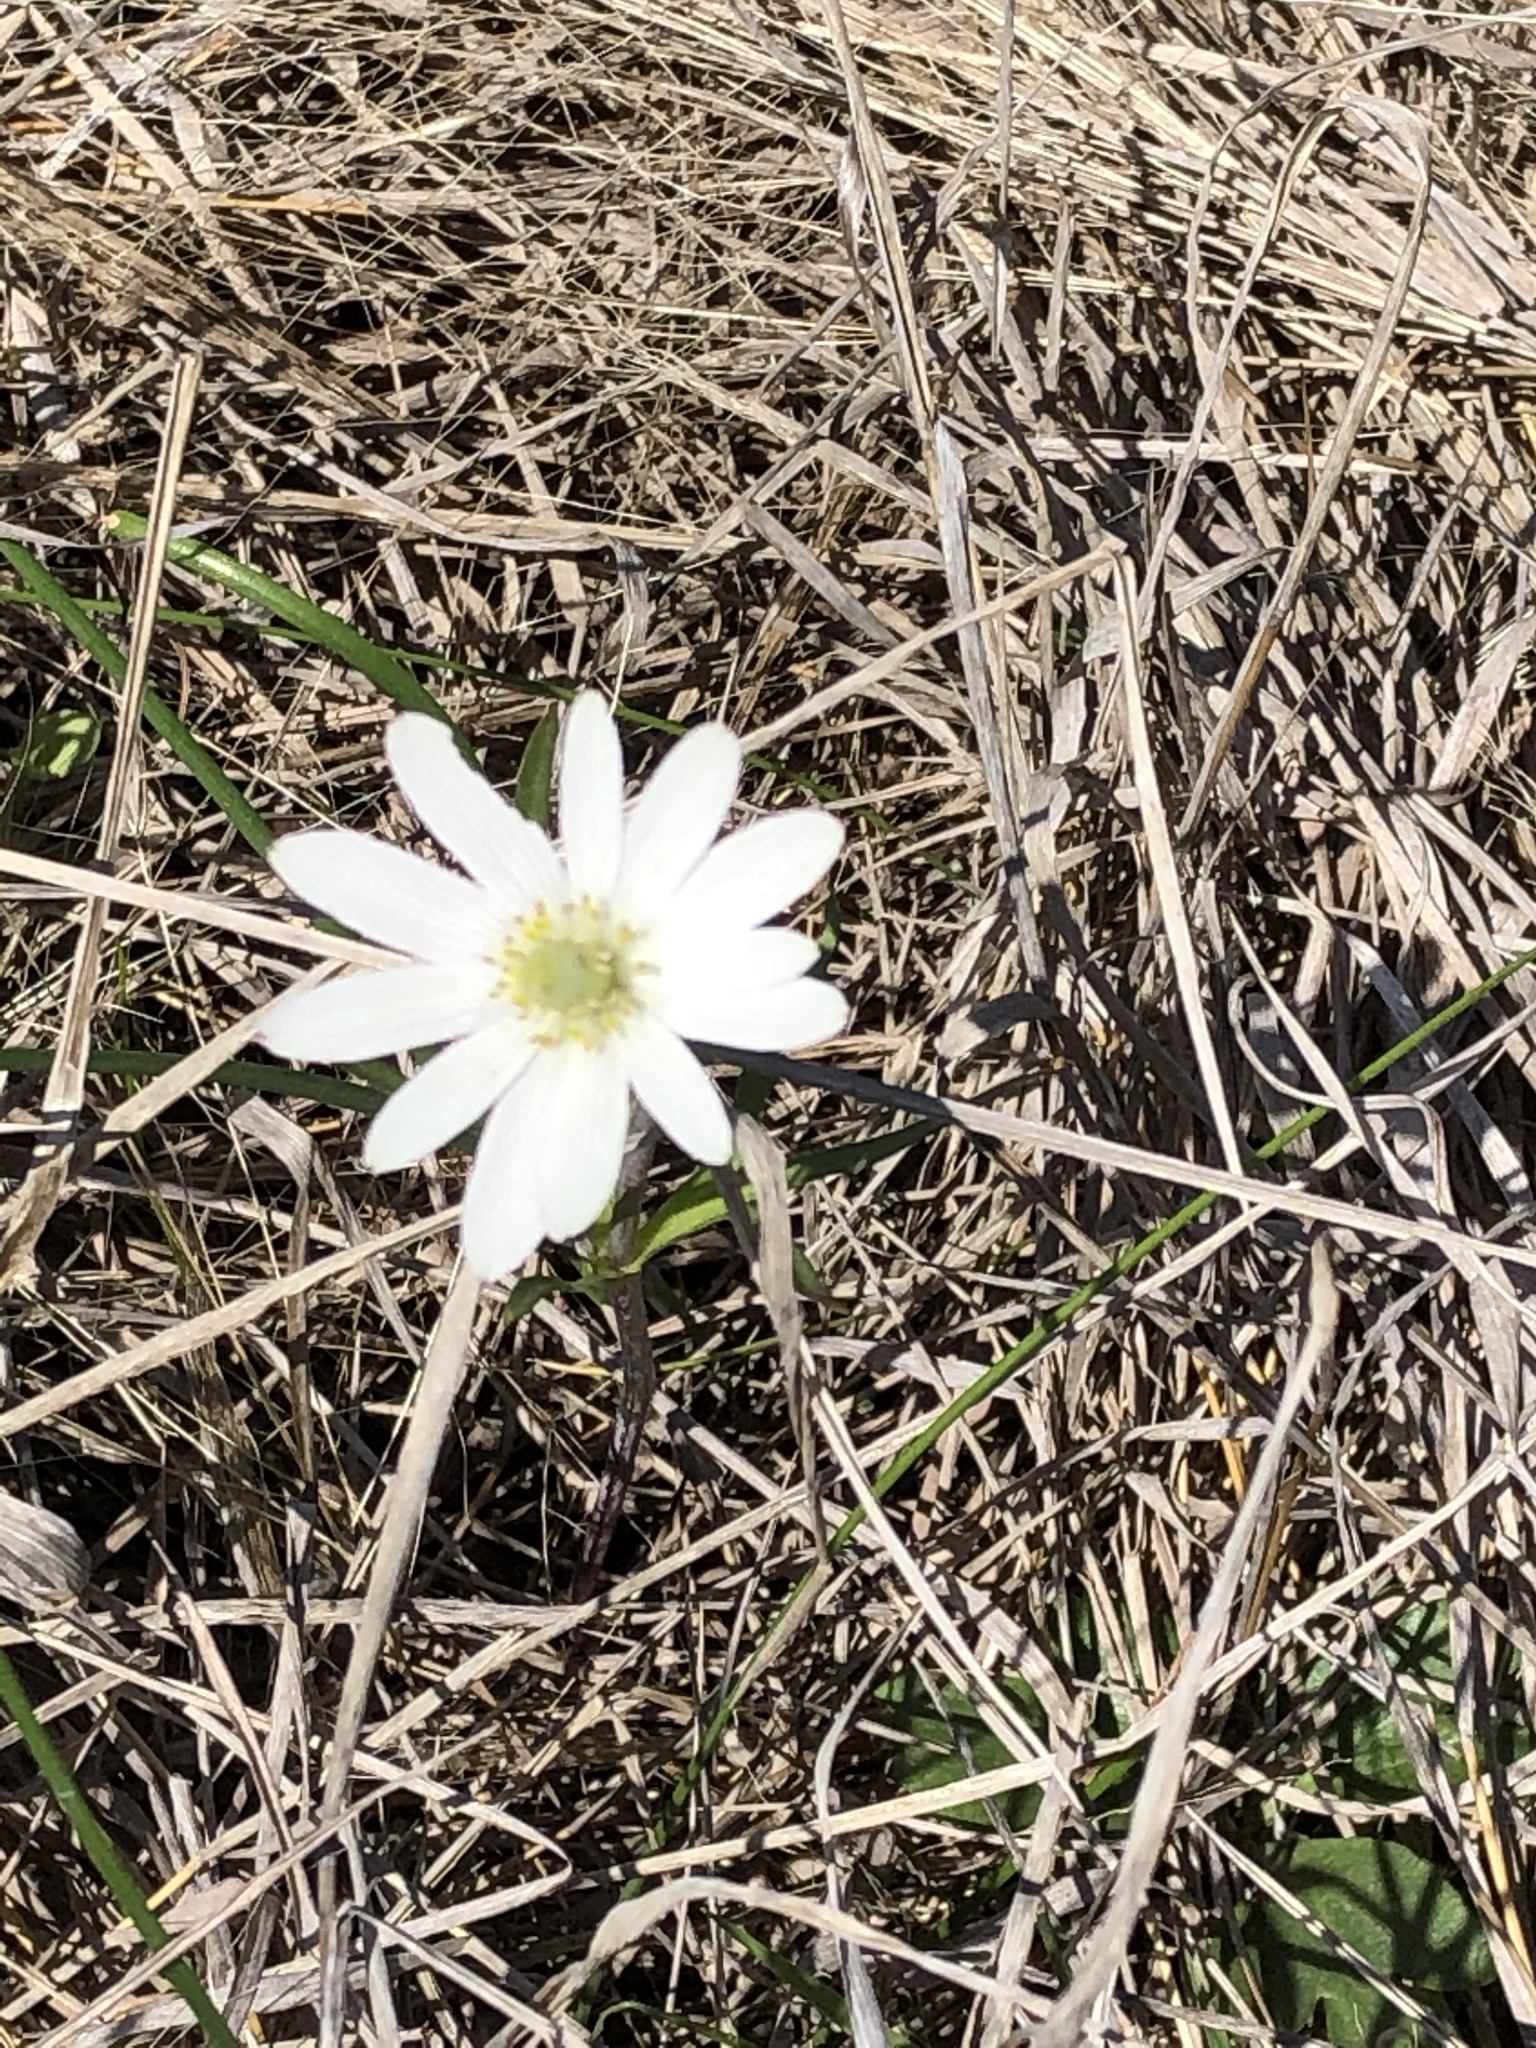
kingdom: Plantae
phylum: Tracheophyta
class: Magnoliopsida
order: Ranunculales
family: Ranunculaceae
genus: Anemone
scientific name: Anemone berlandieri
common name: Ten-petal anemone
